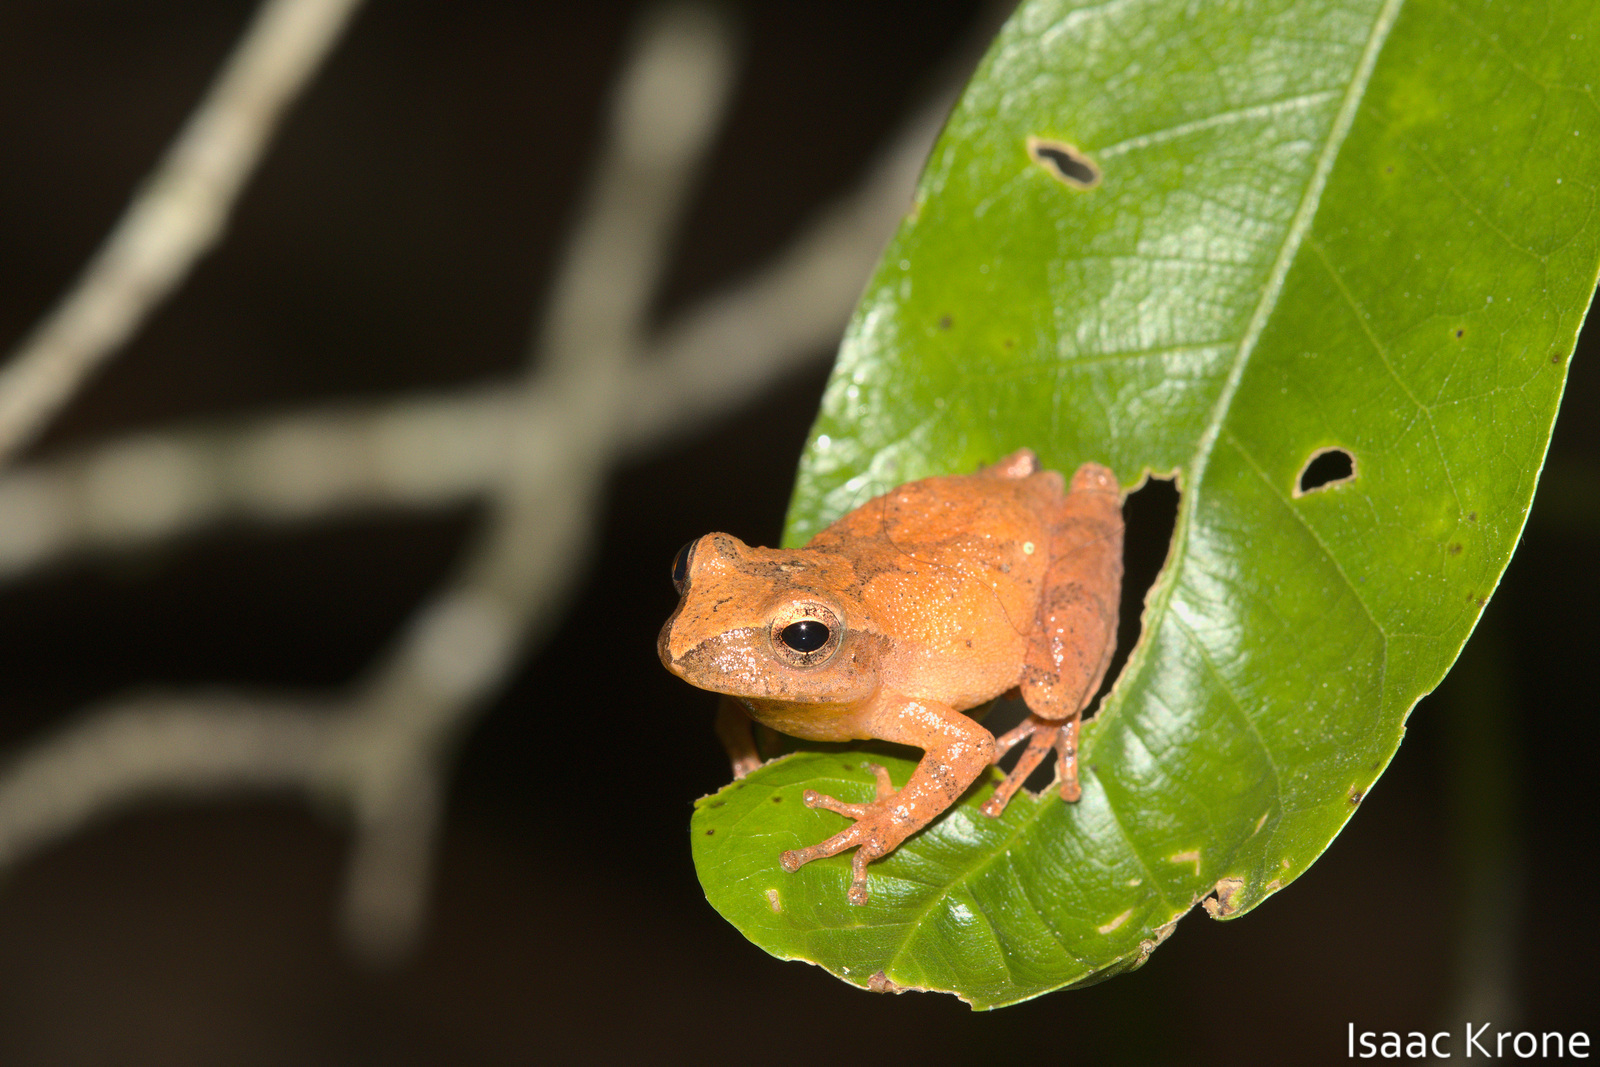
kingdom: Animalia
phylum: Chordata
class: Amphibia
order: Anura
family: Hylidae
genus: Pseudacris
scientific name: Pseudacris crucifer
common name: Spring peeper
